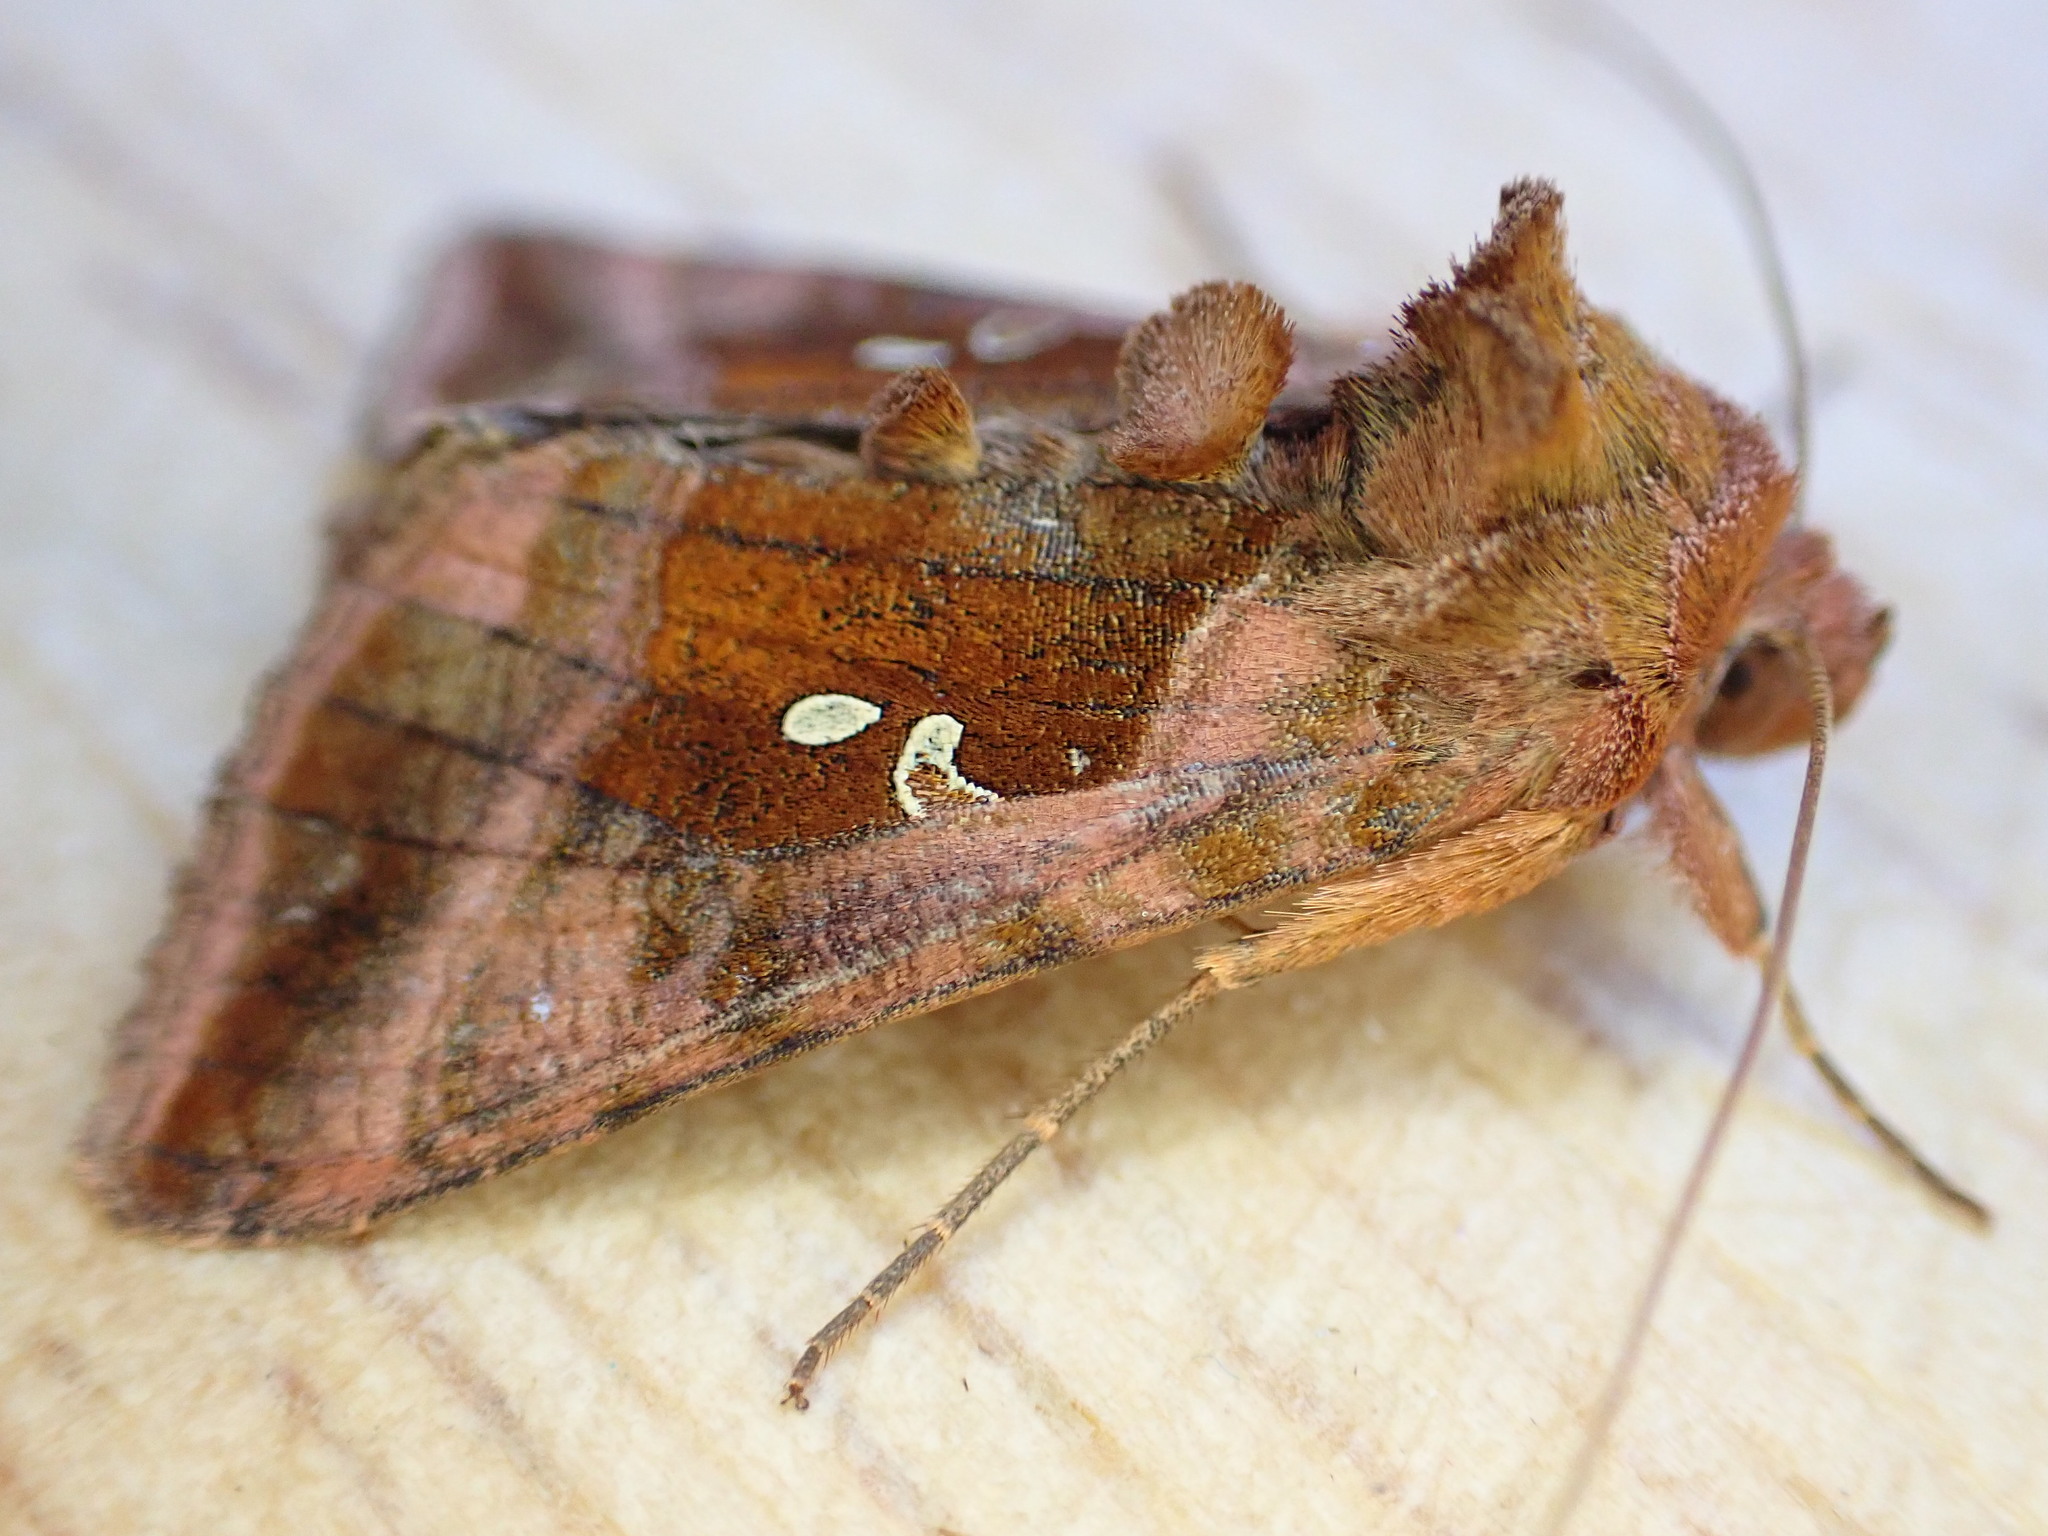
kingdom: Animalia
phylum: Arthropoda
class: Insecta
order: Lepidoptera
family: Noctuidae
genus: Autographa
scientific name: Autographa jota
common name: Plain golden y
